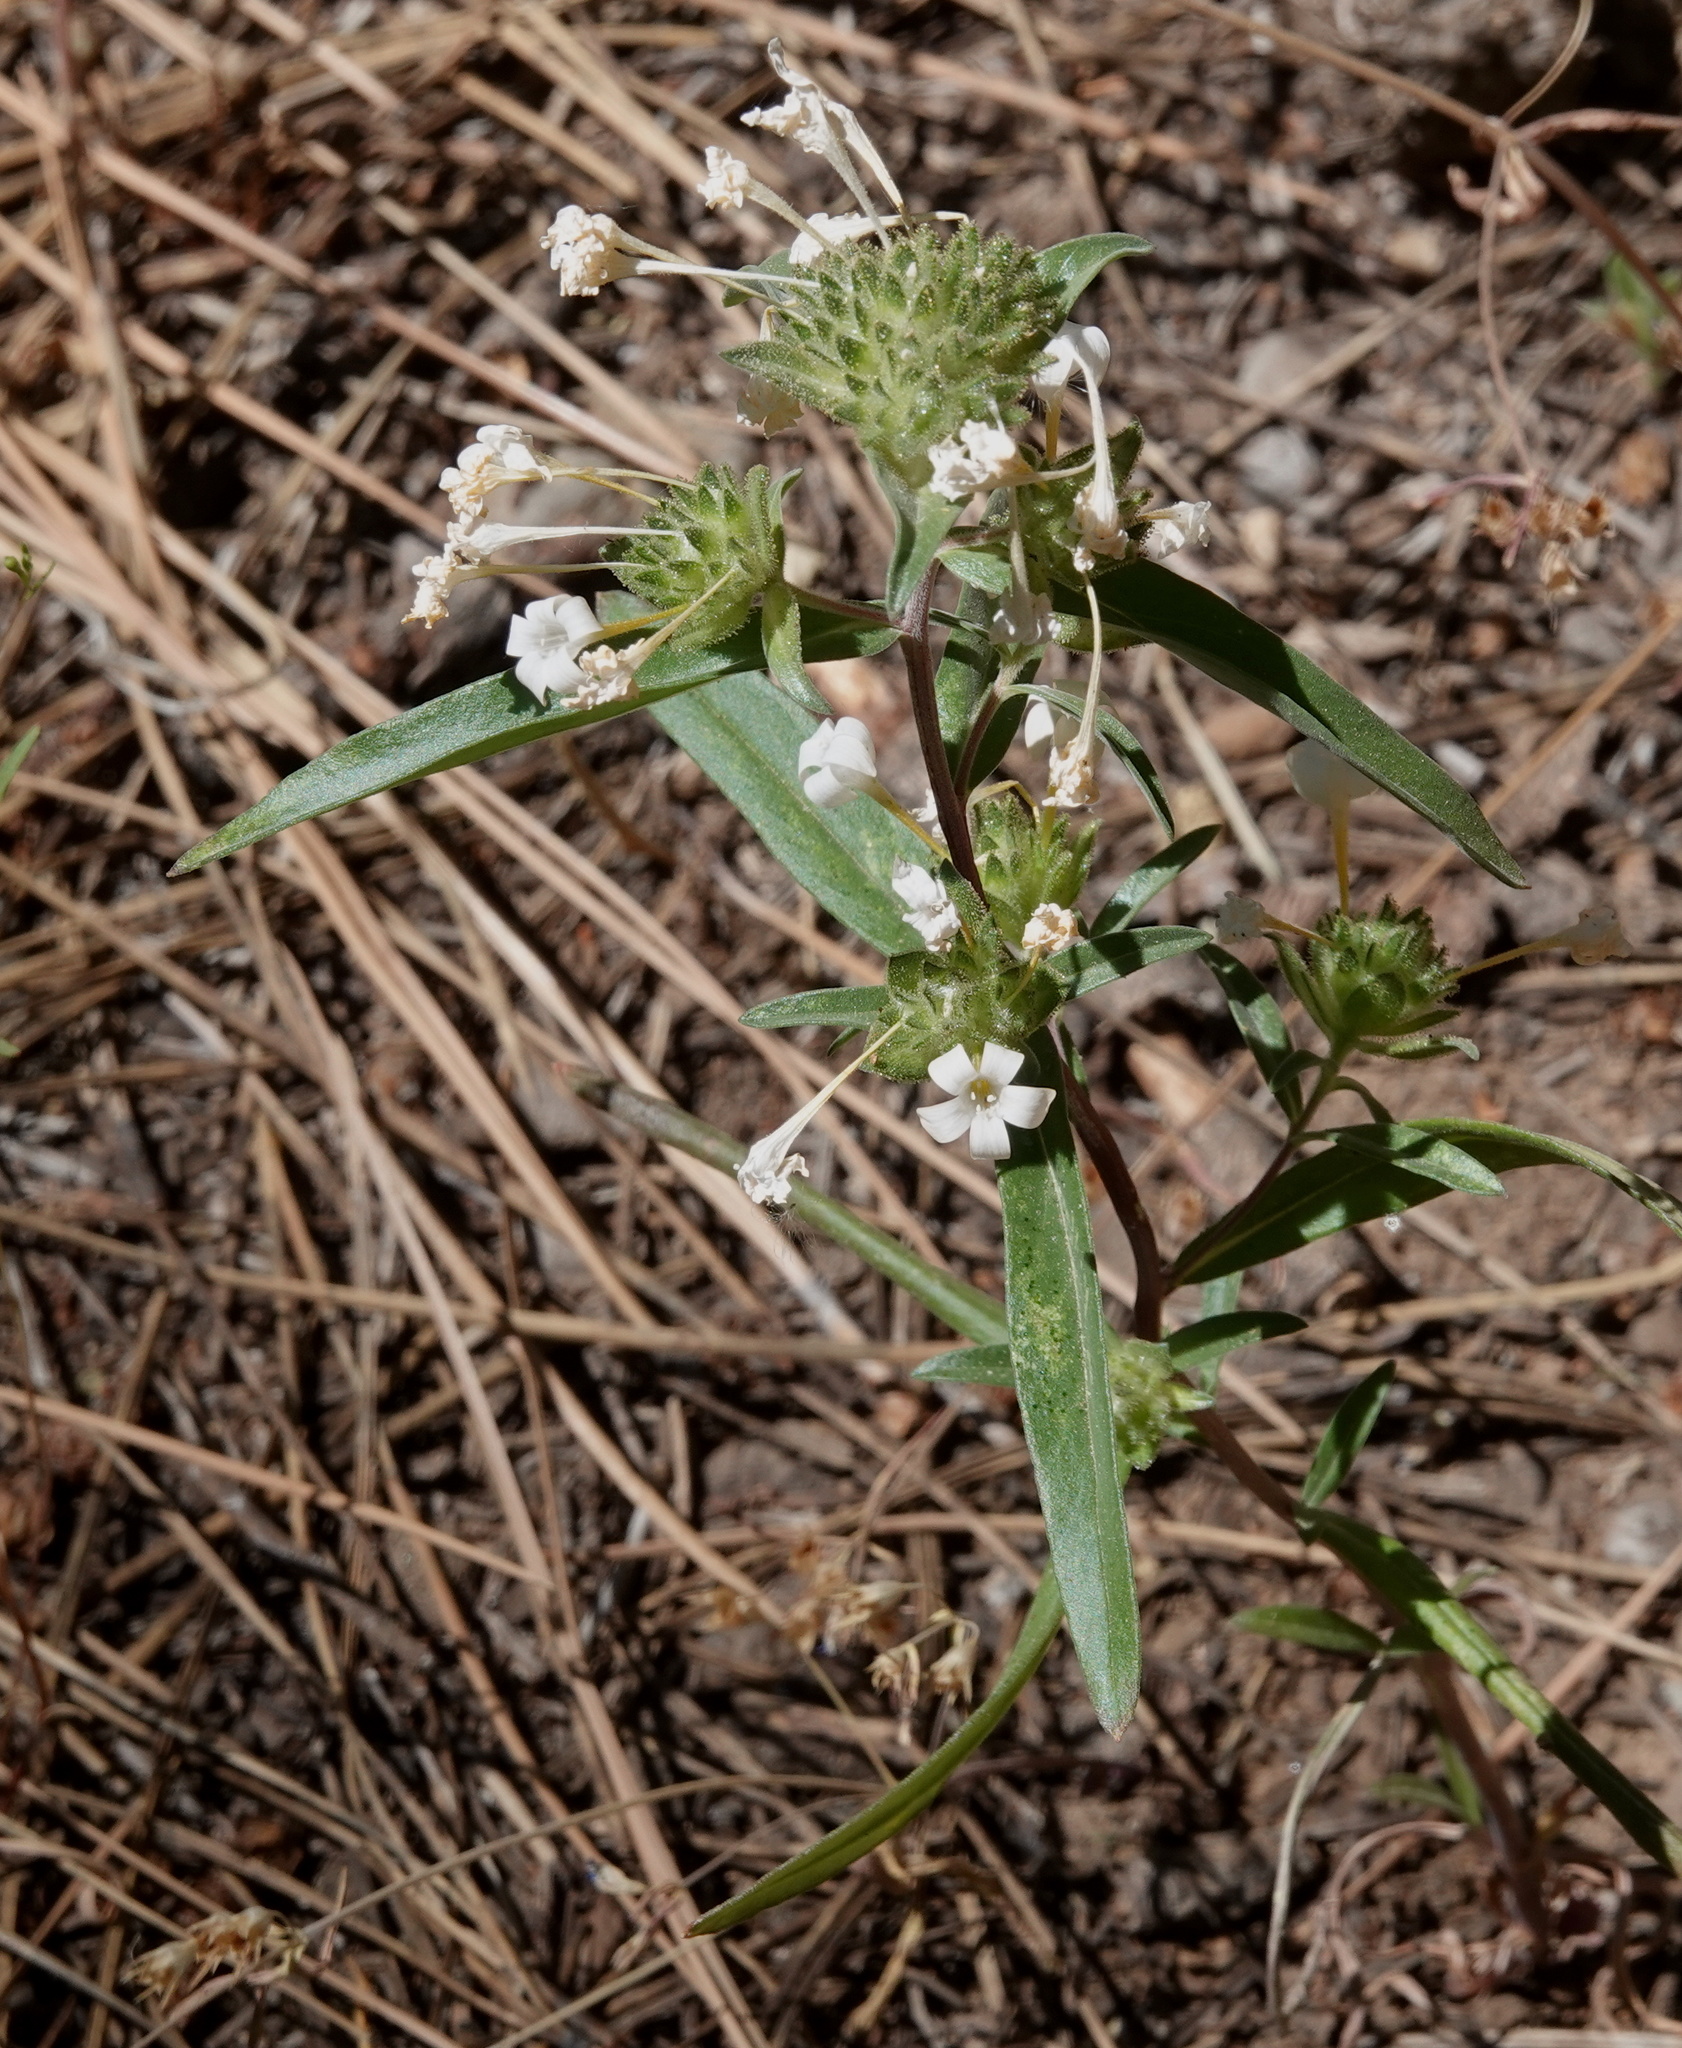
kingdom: Plantae
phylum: Tracheophyta
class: Magnoliopsida
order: Ericales
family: Polemoniaceae
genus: Collomia
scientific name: Collomia grandiflora
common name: California strawflower
